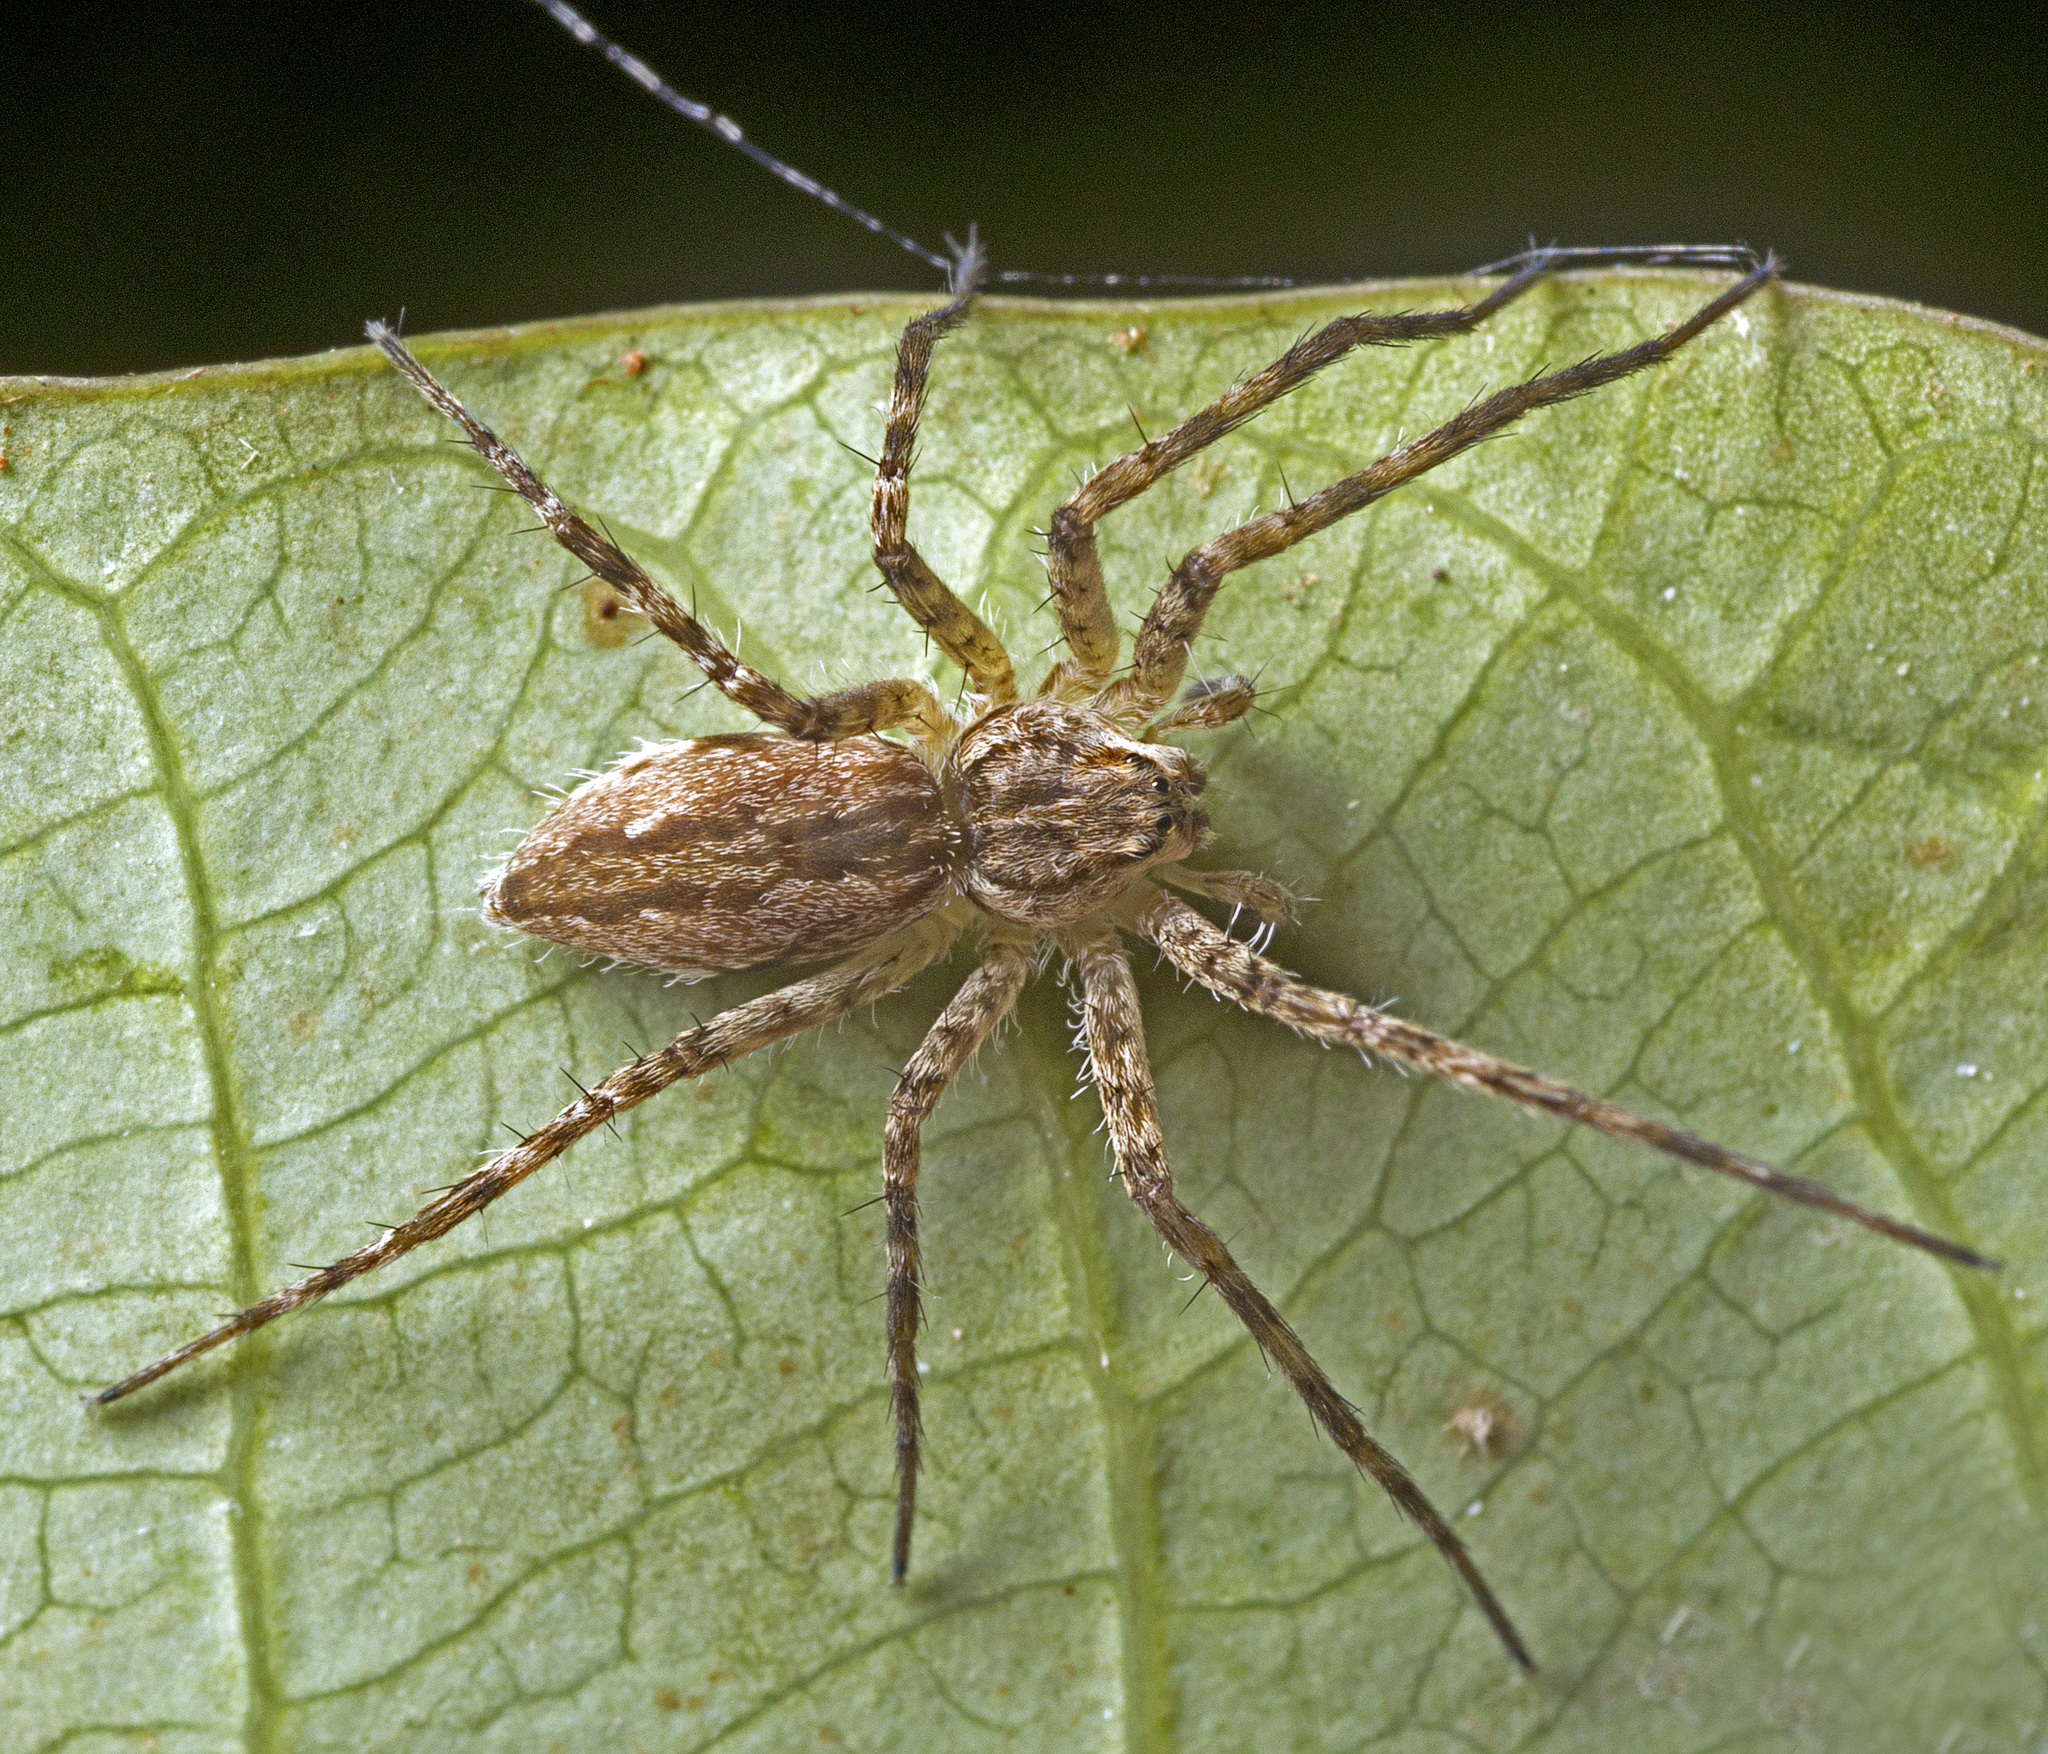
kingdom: Animalia
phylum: Arthropoda
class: Arachnida
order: Araneae
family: Pisauridae
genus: Dendrolycosa
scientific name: Dendrolycosa icadia
